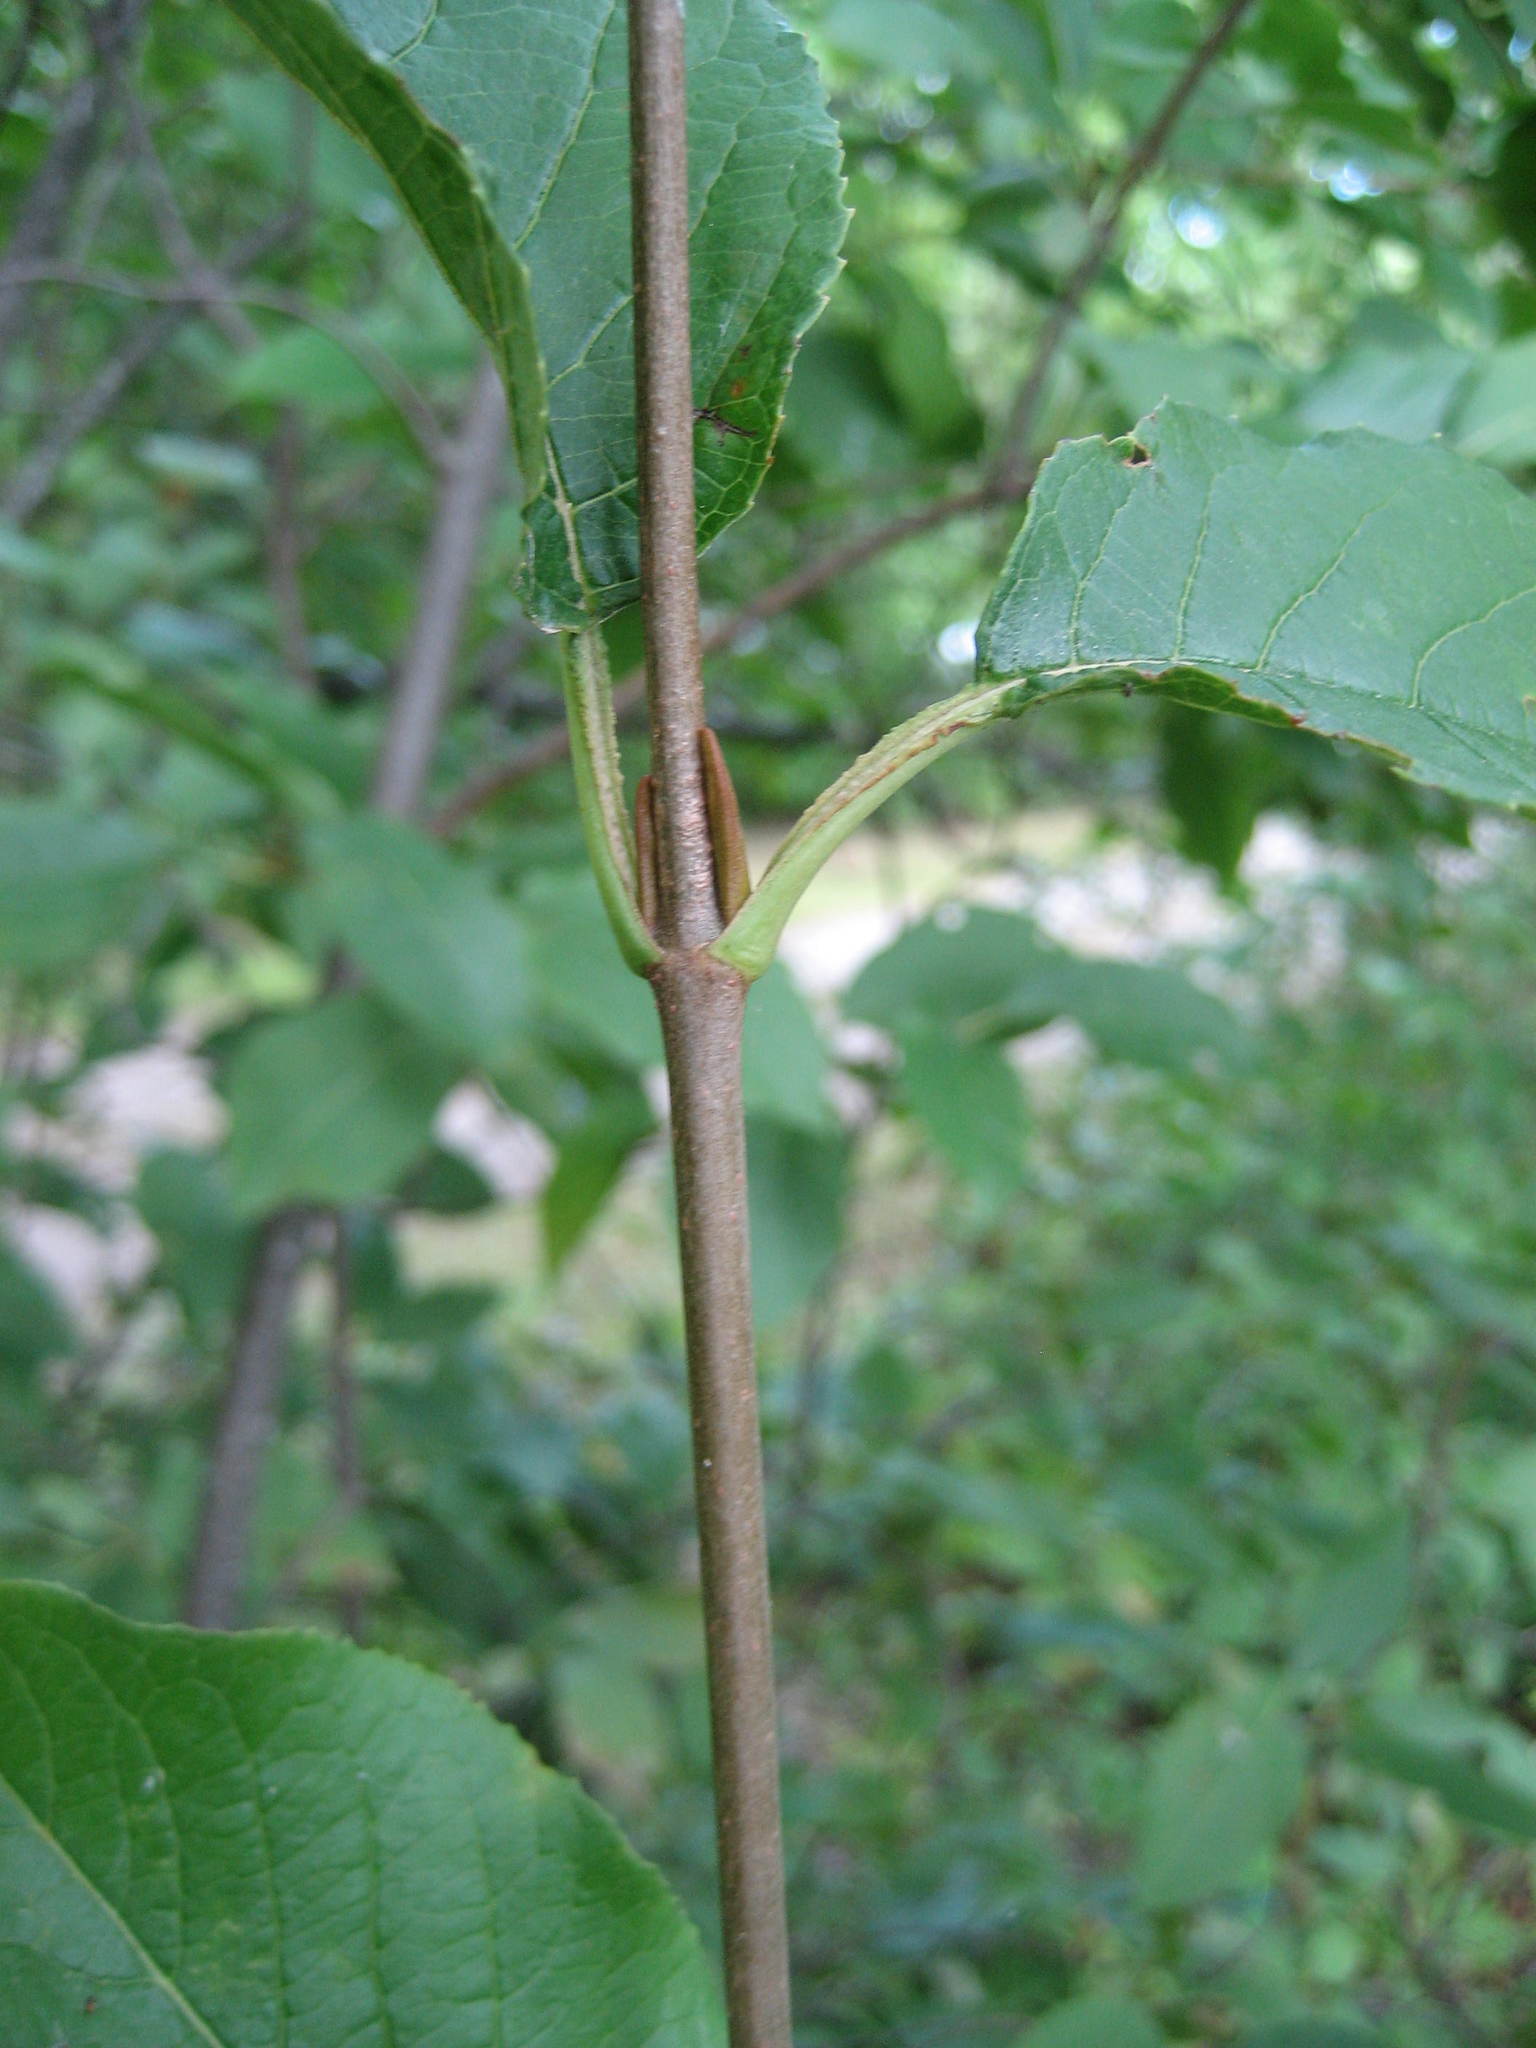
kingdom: Plantae
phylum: Tracheophyta
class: Magnoliopsida
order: Dipsacales
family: Viburnaceae
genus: Viburnum
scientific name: Viburnum lentago
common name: Black haw
